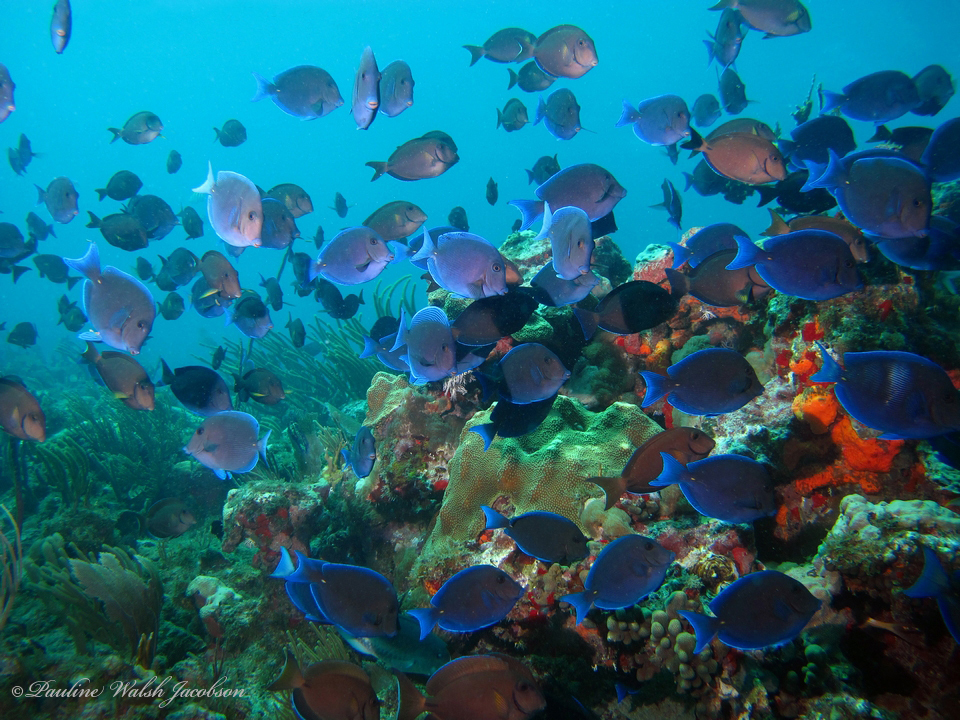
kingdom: Animalia
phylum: Chordata
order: Perciformes
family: Acanthuridae
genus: Acanthurus
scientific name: Acanthurus coeruleus
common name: Blue tang
